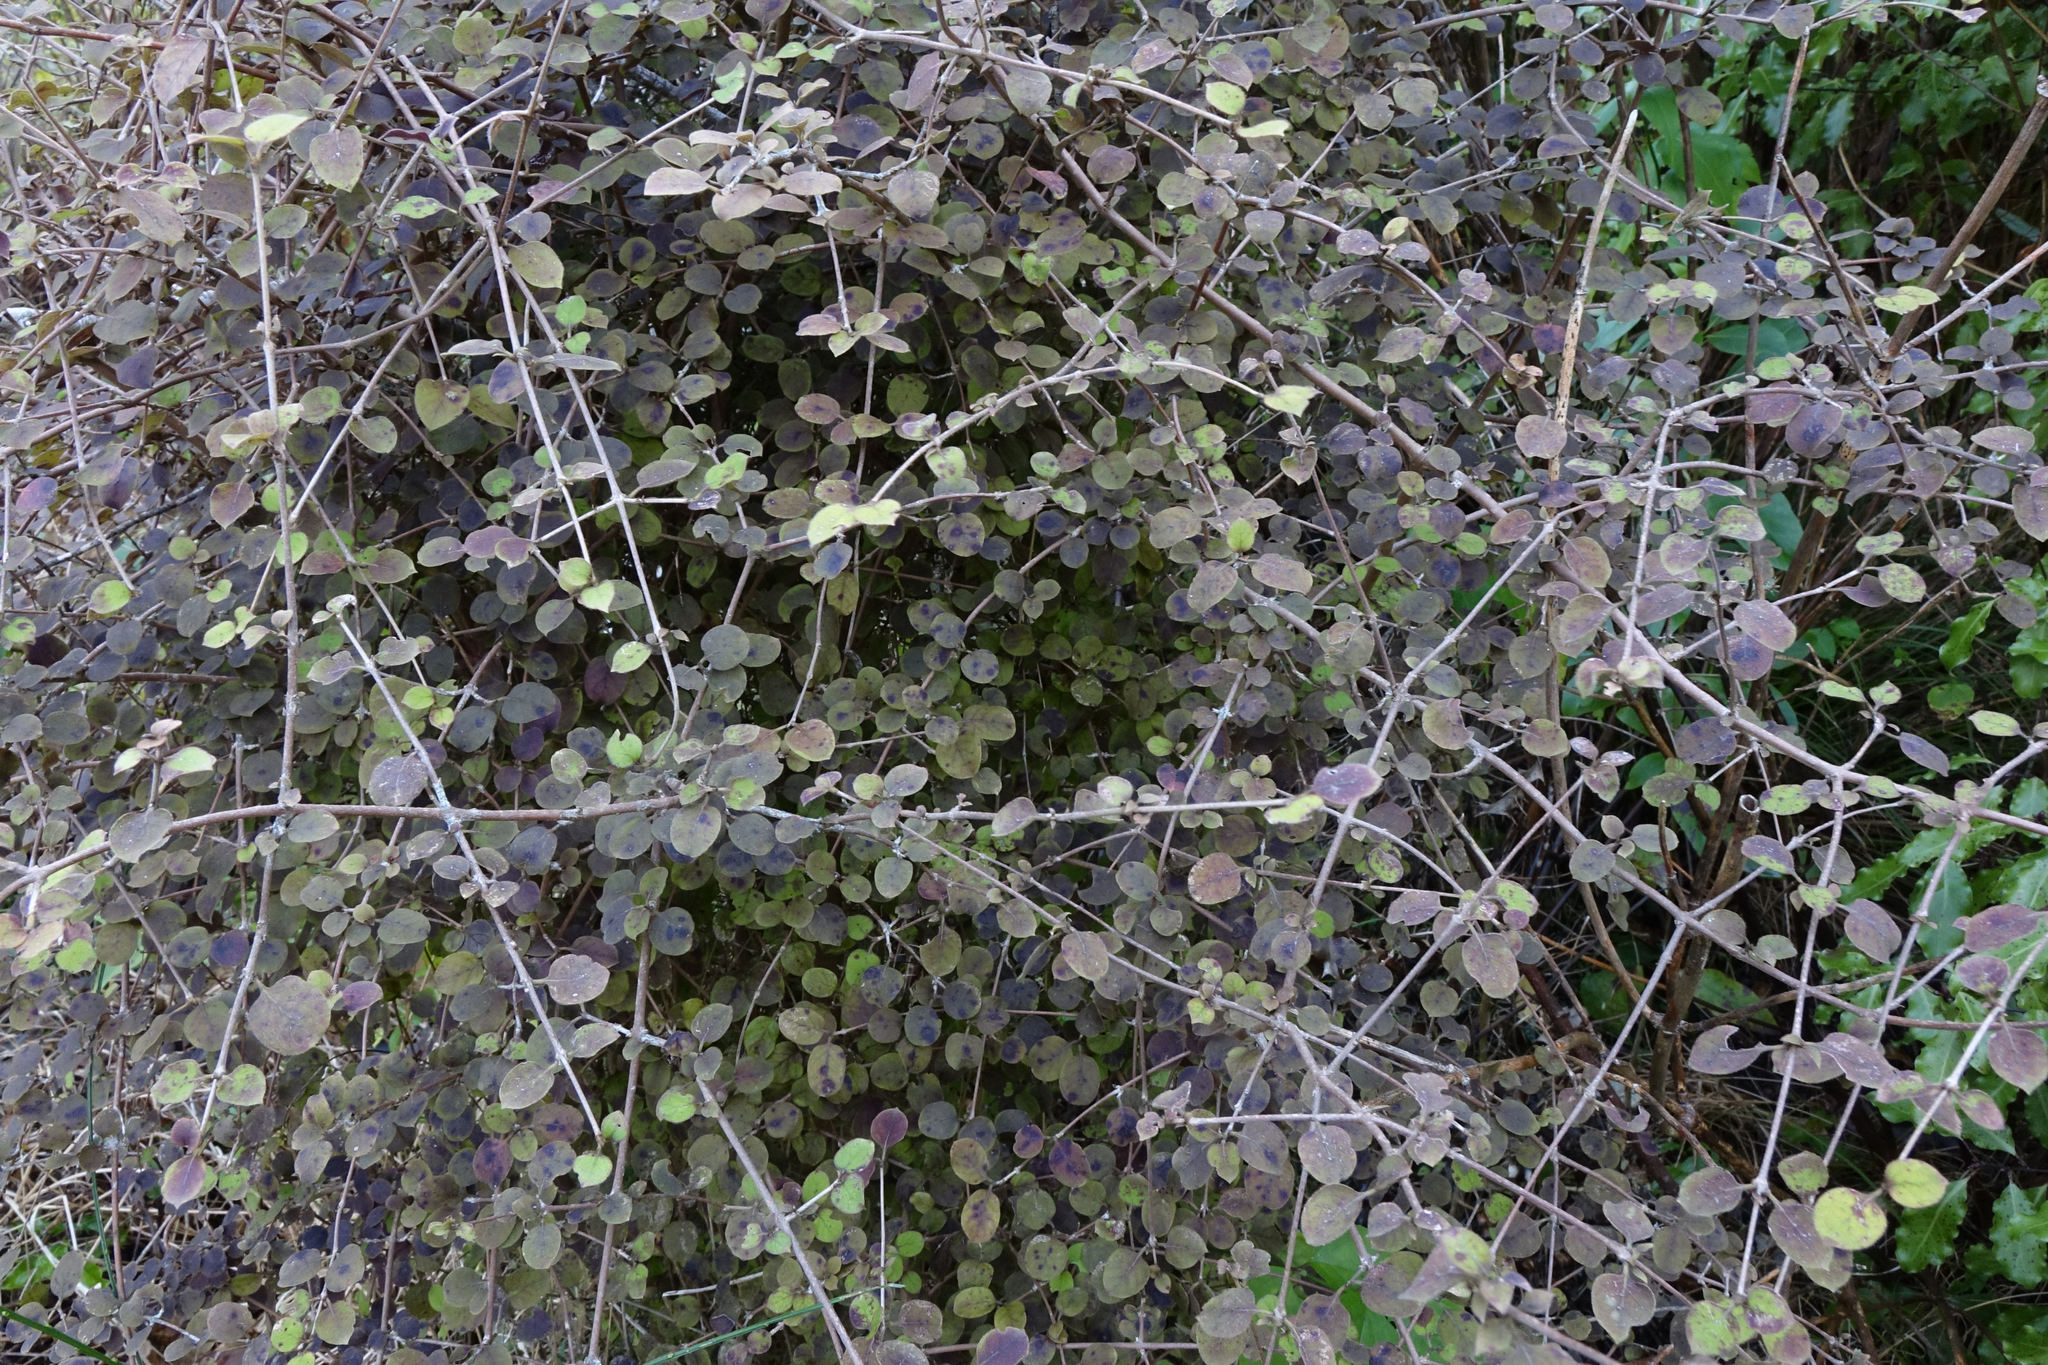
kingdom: Plantae
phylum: Tracheophyta
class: Magnoliopsida
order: Gentianales
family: Rubiaceae
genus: Coprosma
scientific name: Coprosma rotundifolia
